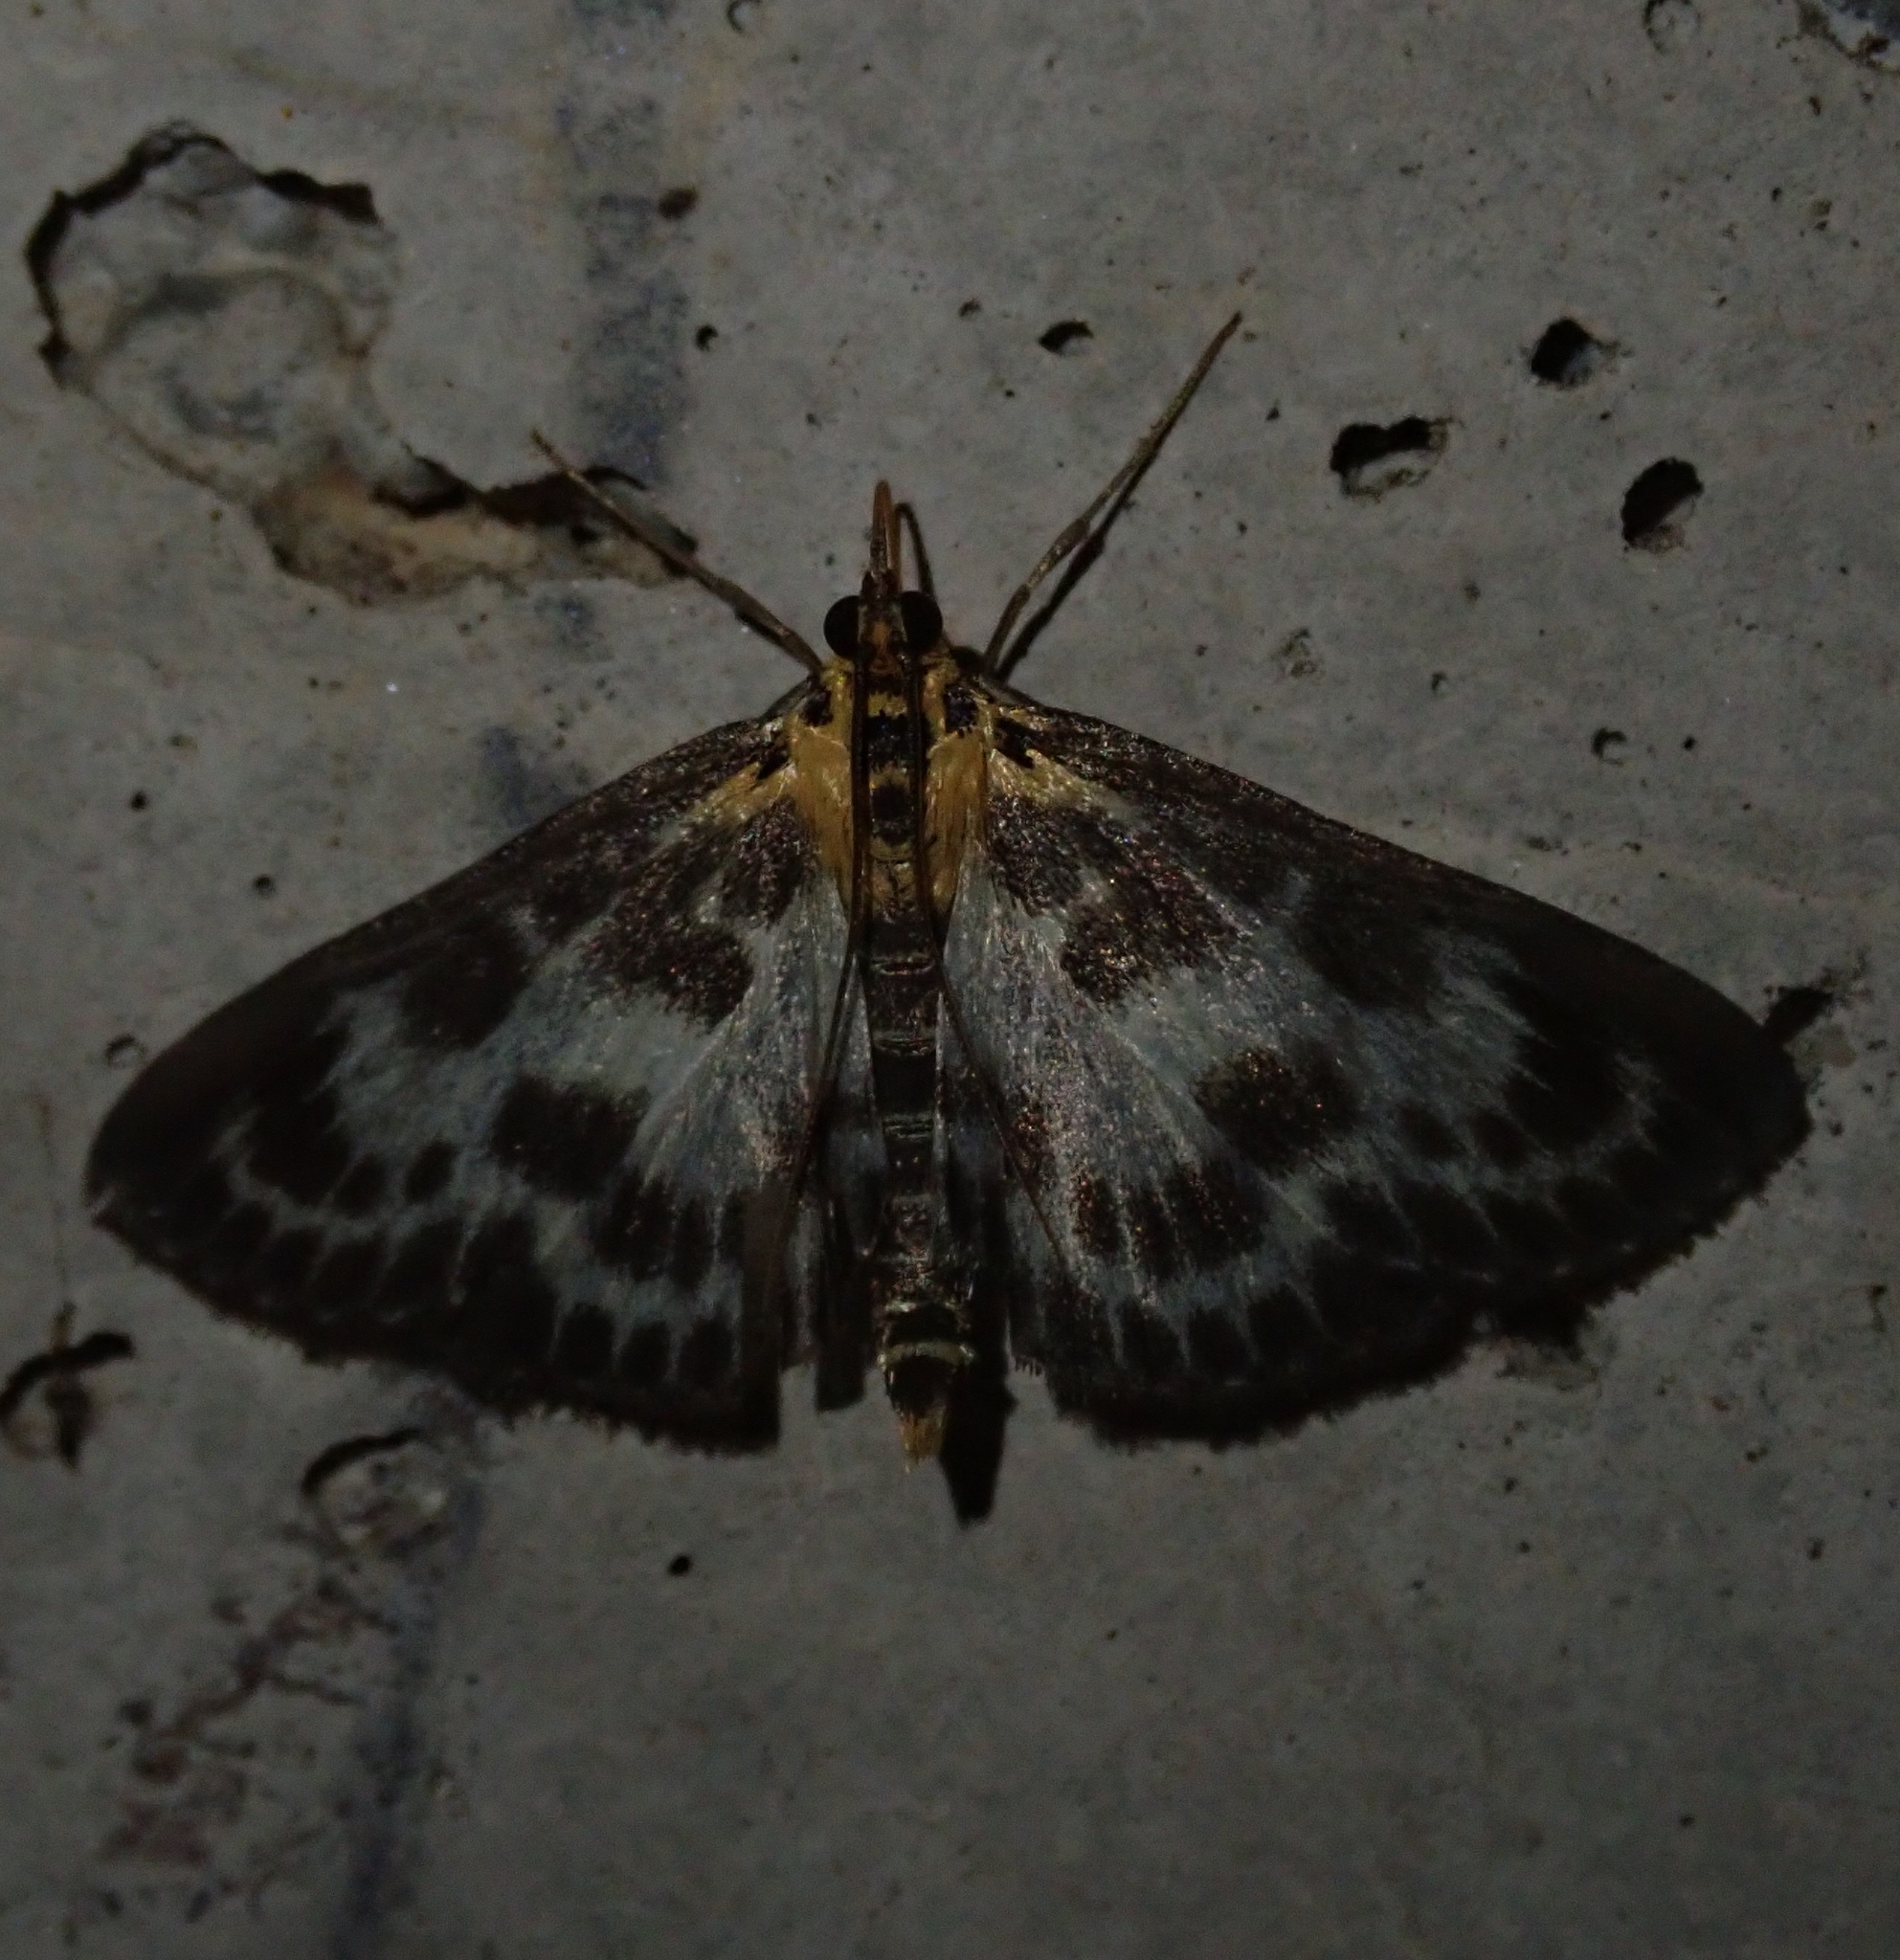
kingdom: Animalia
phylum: Arthropoda
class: Insecta
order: Lepidoptera
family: Crambidae
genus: Anania
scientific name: Anania hortulata
